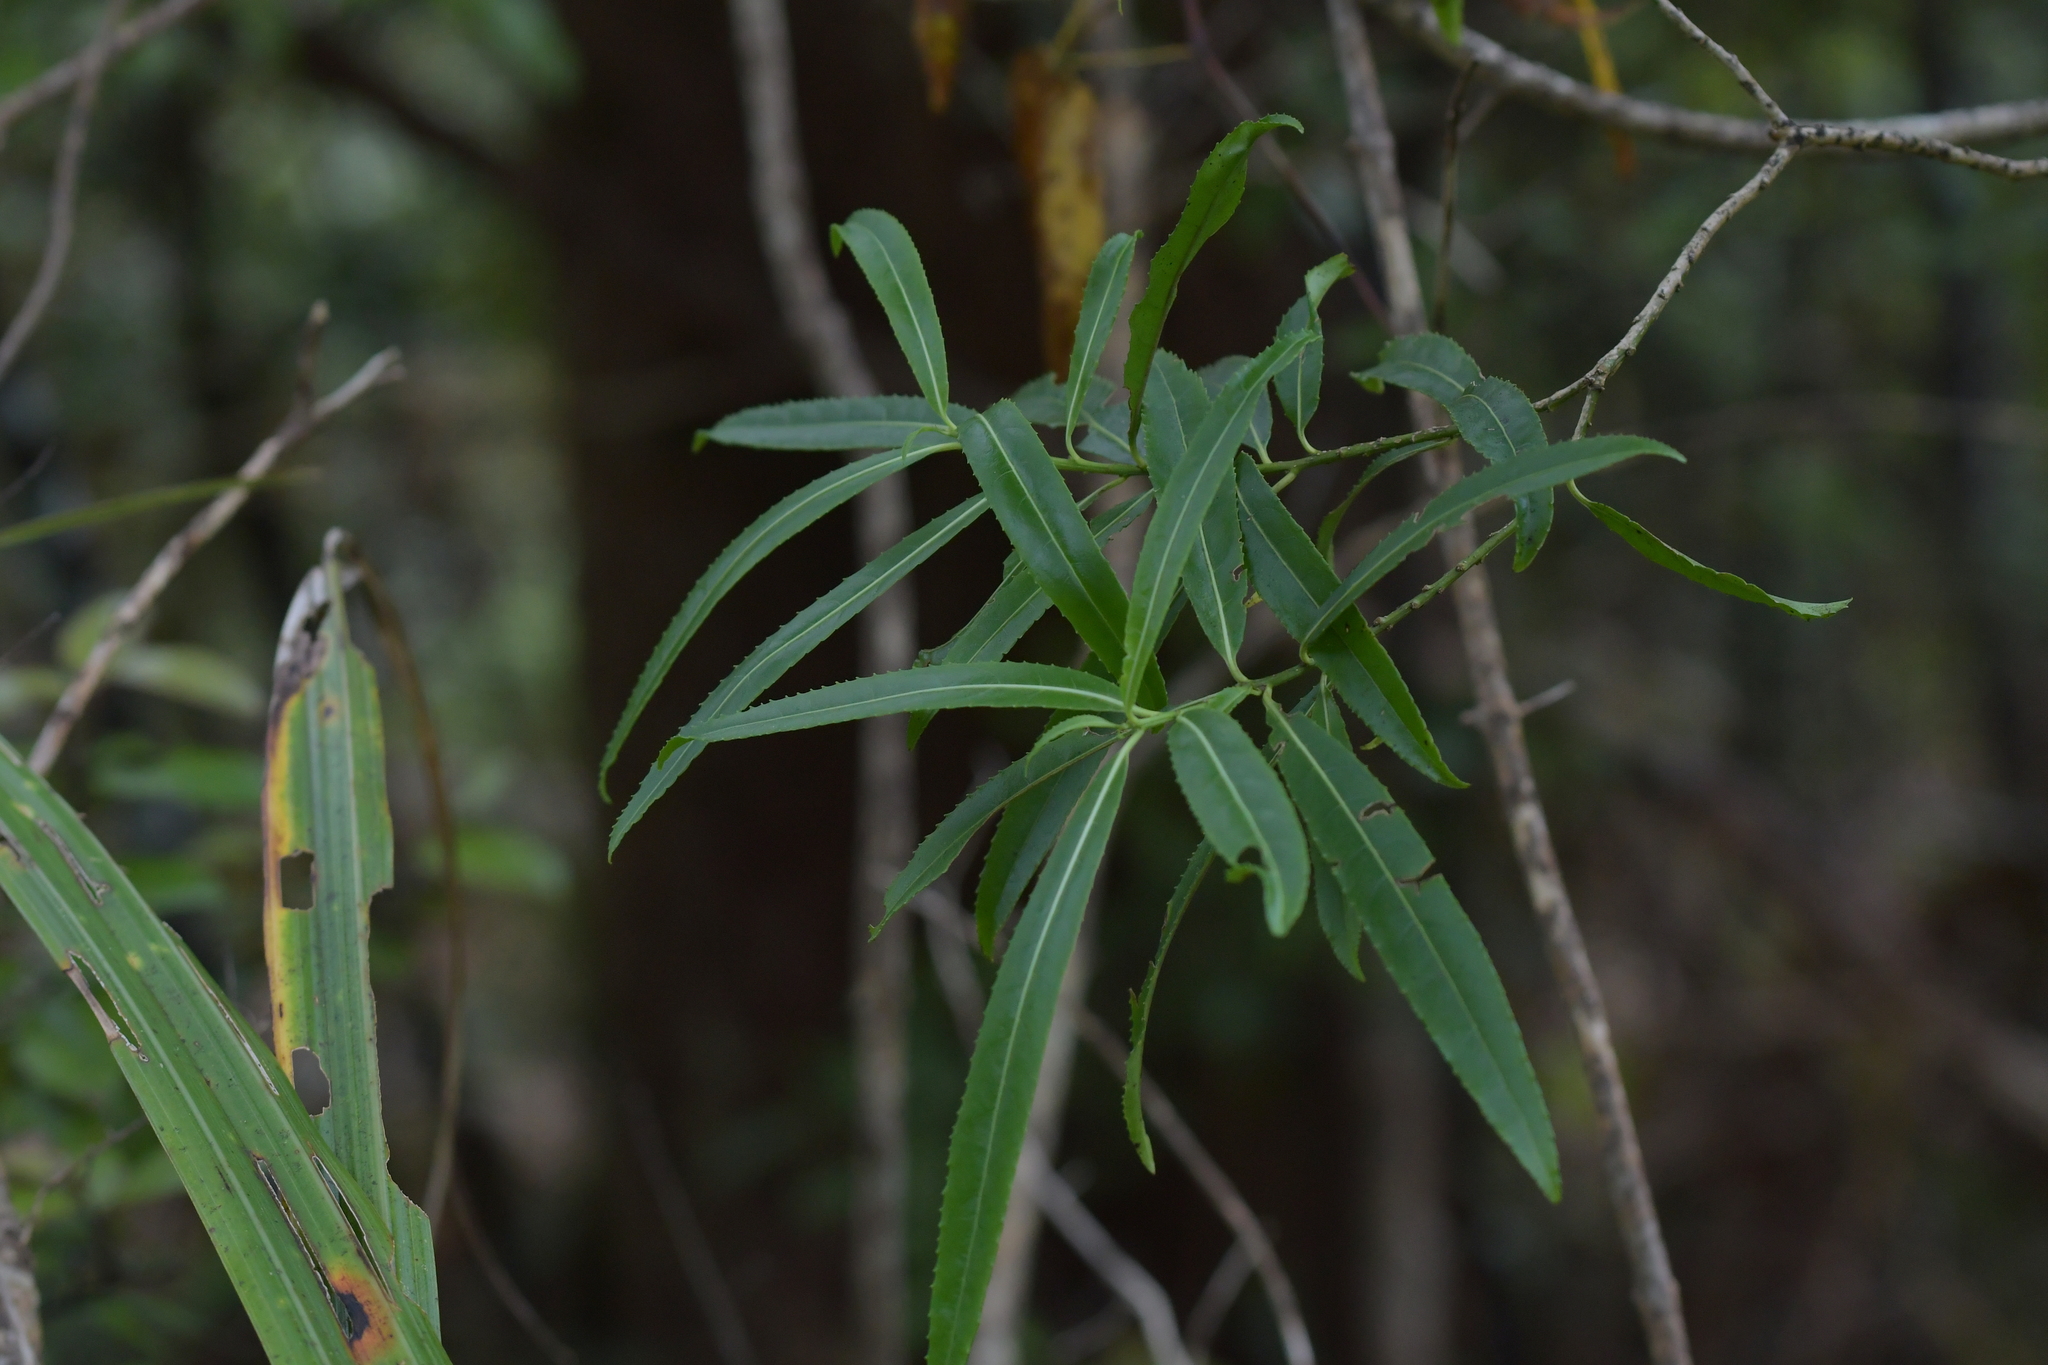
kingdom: Plantae
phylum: Tracheophyta
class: Magnoliopsida
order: Malpighiales
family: Violaceae
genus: Melicytus
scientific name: Melicytus lanceolatus
